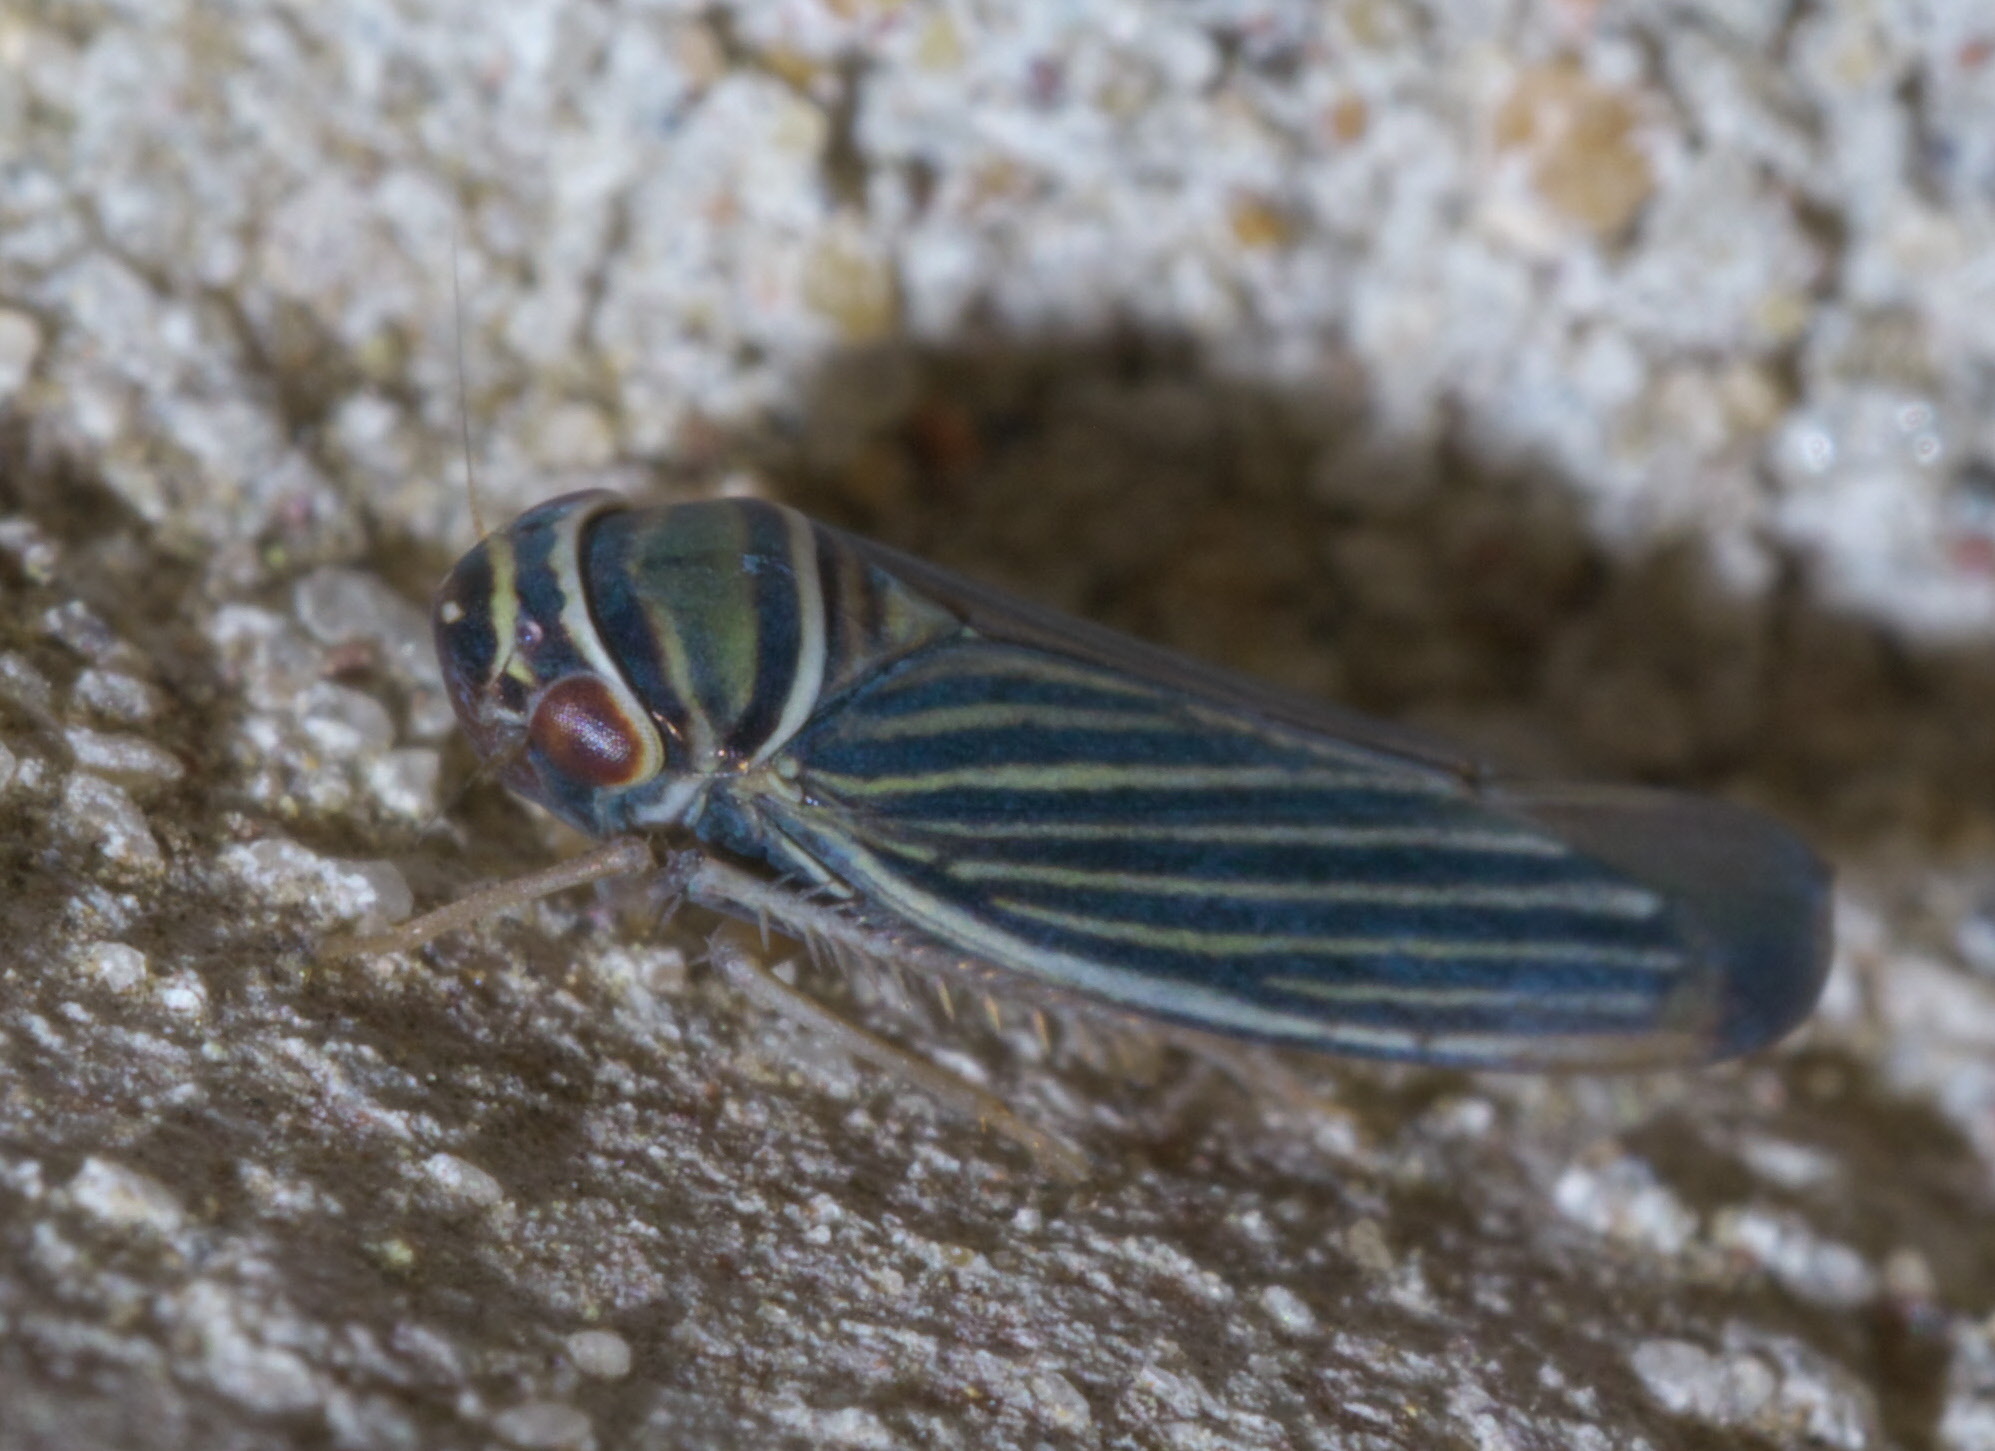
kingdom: Animalia
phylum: Arthropoda
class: Insecta
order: Hemiptera
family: Cicadellidae
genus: Tylozygus
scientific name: Tylozygus bifidus
